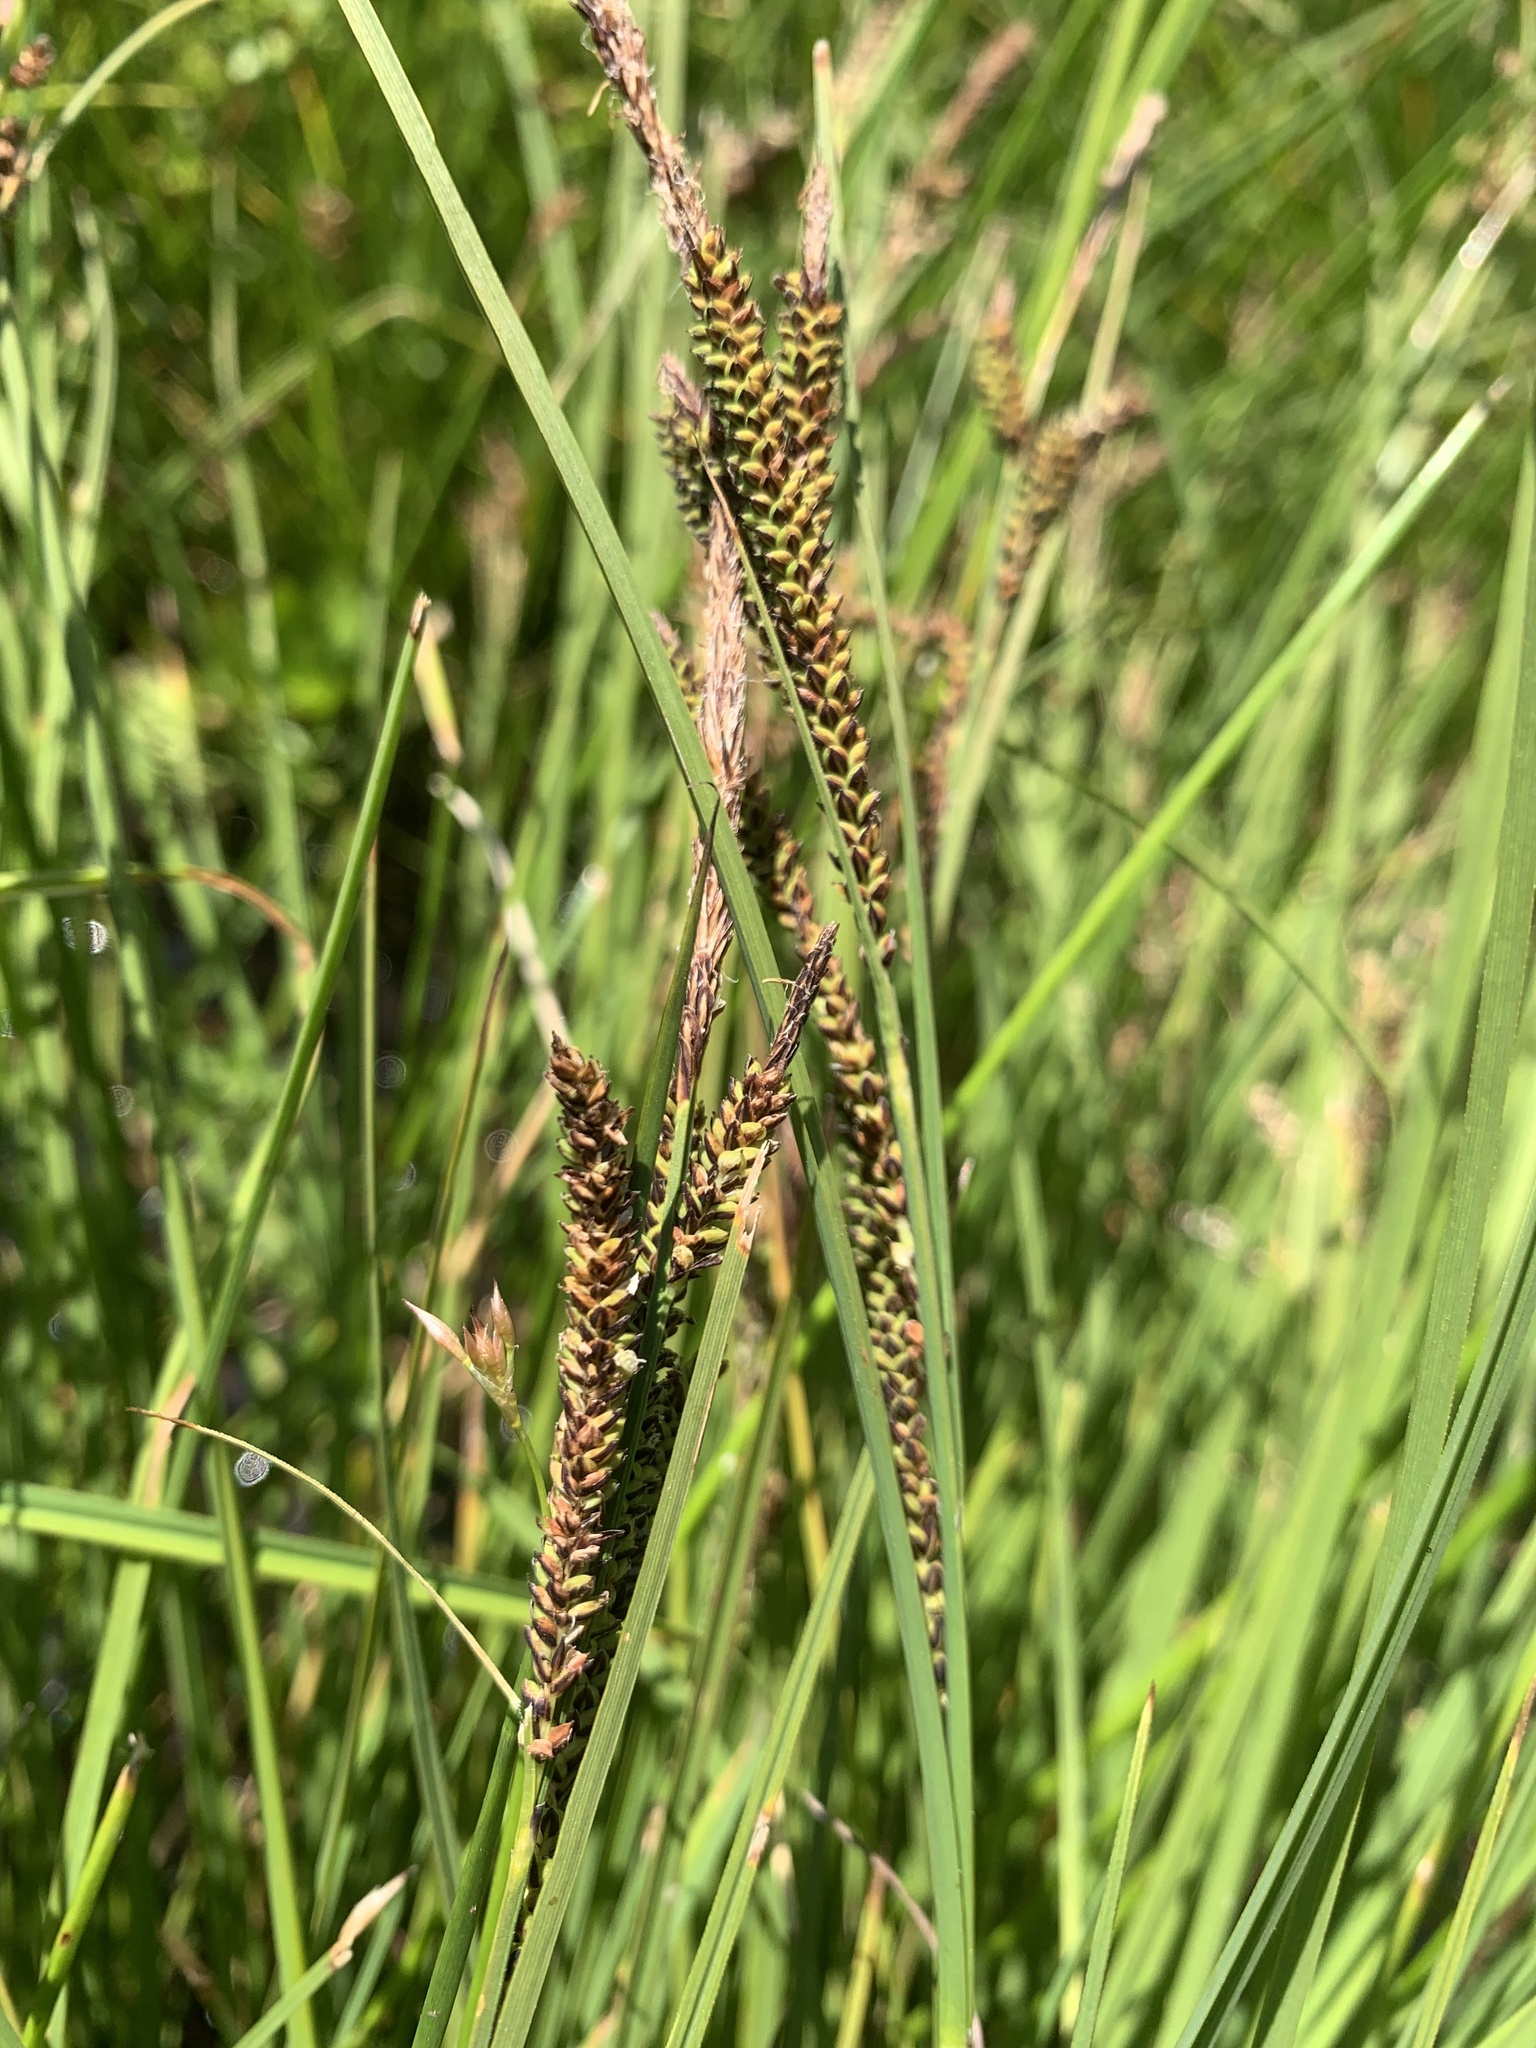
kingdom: Plantae
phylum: Tracheophyta
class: Liliopsida
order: Poales
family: Cyperaceae
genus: Carex
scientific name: Carex aquatilis
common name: Water sedge
